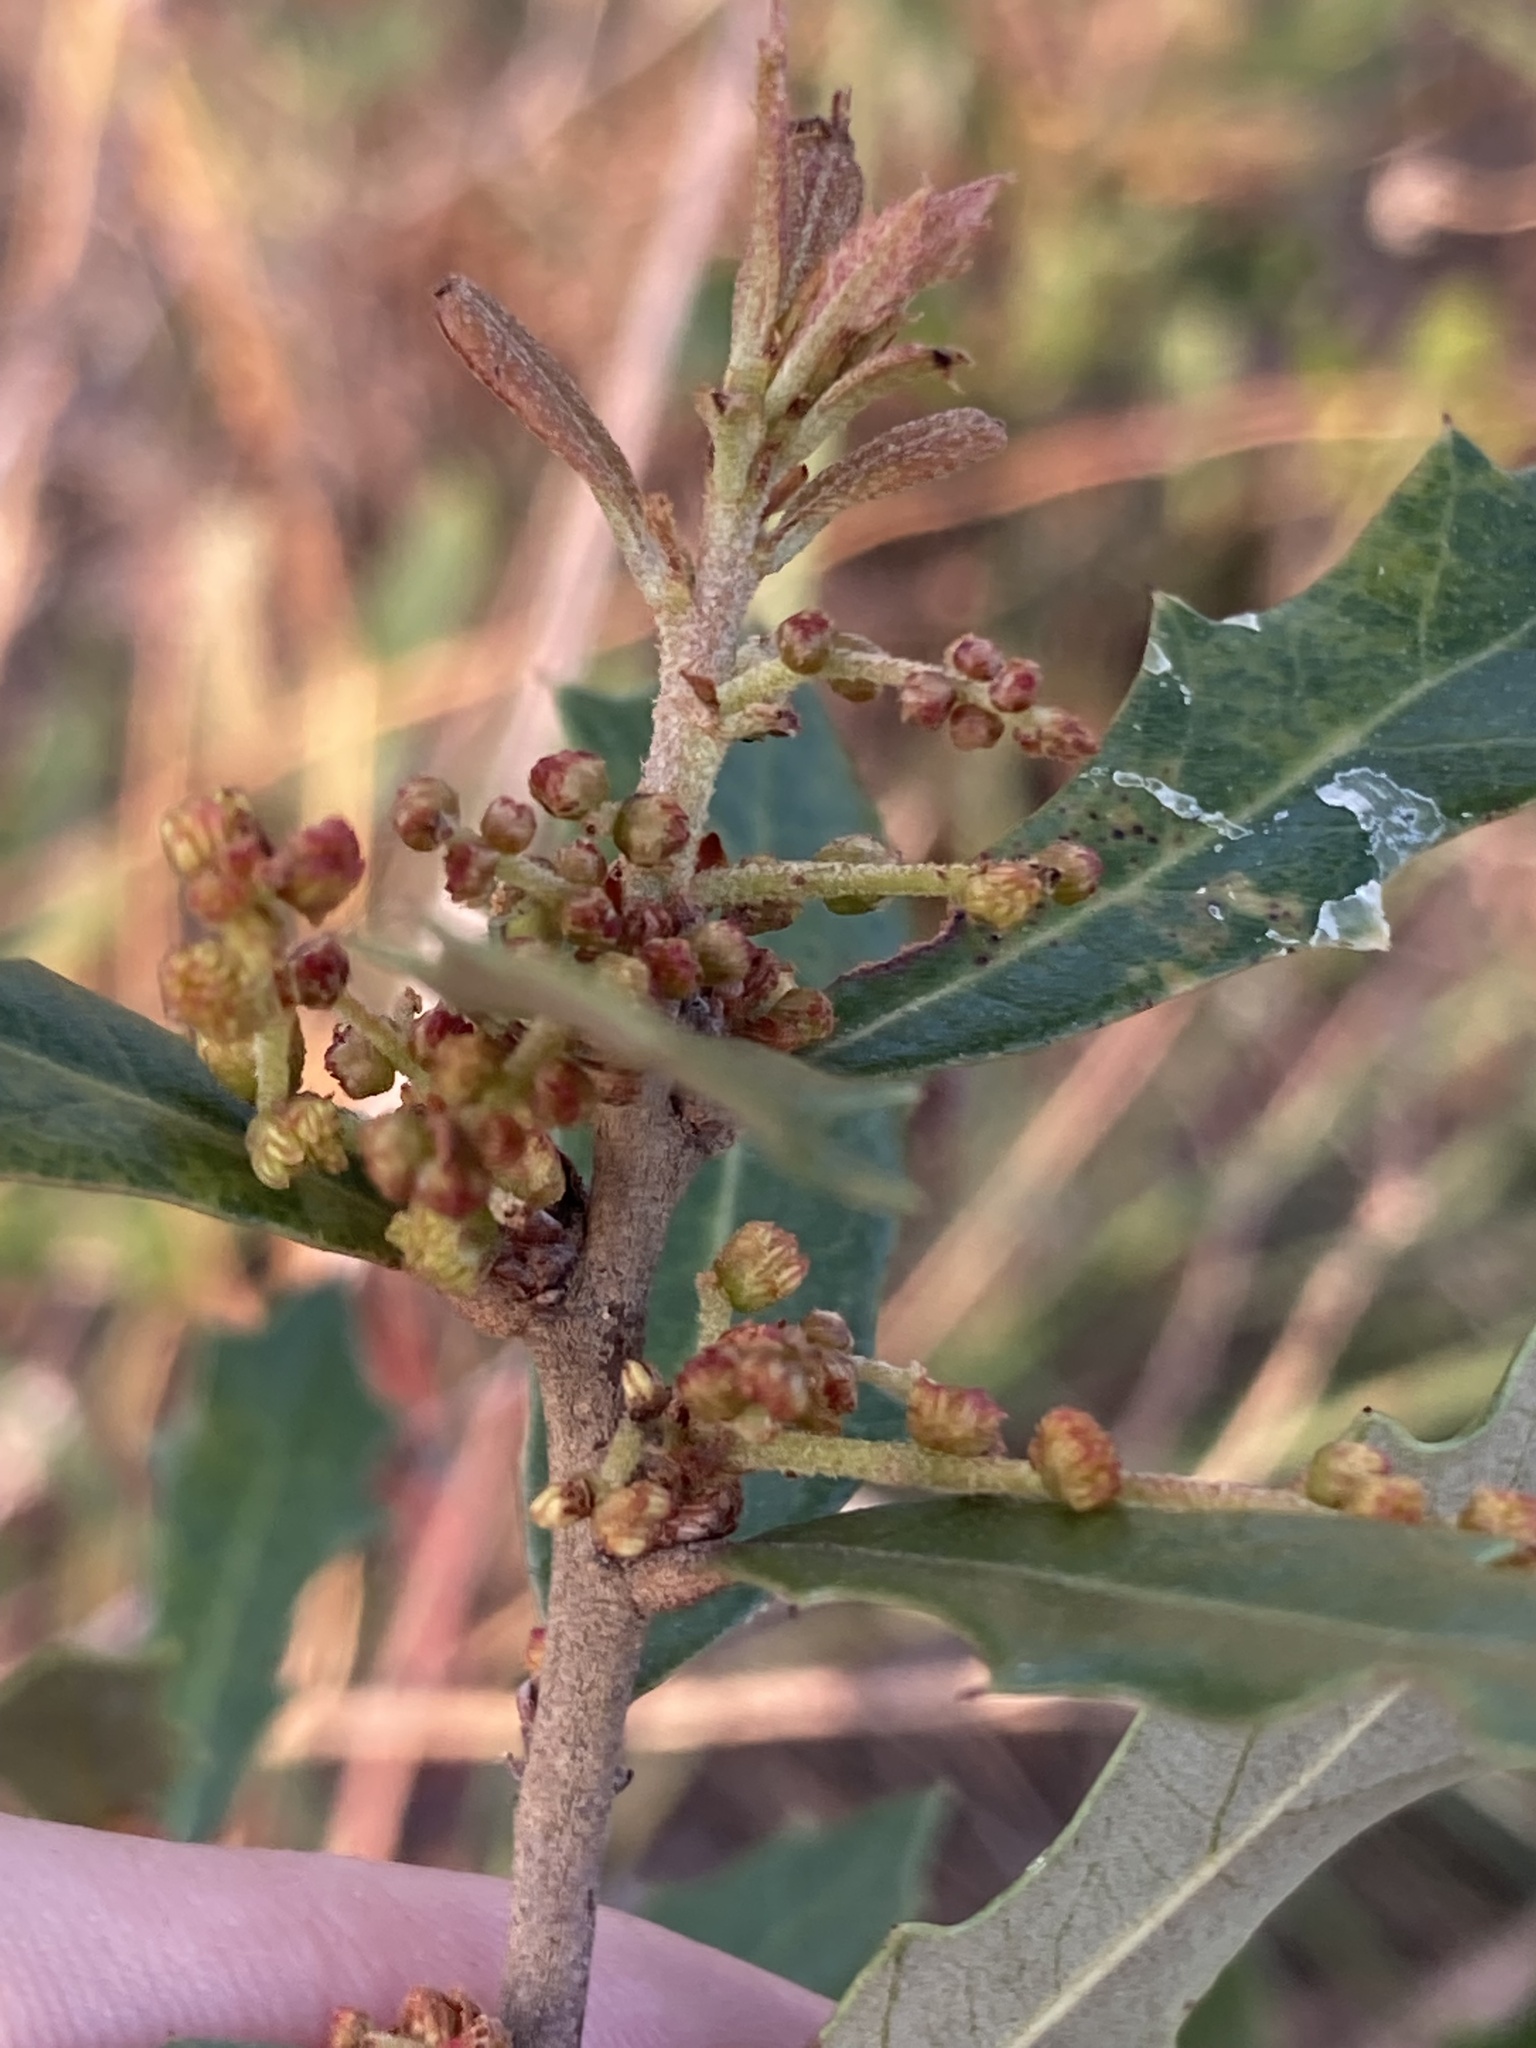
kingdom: Plantae
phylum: Tracheophyta
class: Magnoliopsida
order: Fagales
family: Fagaceae
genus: Quercus
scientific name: Quercus minima
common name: Dwarf live oak
